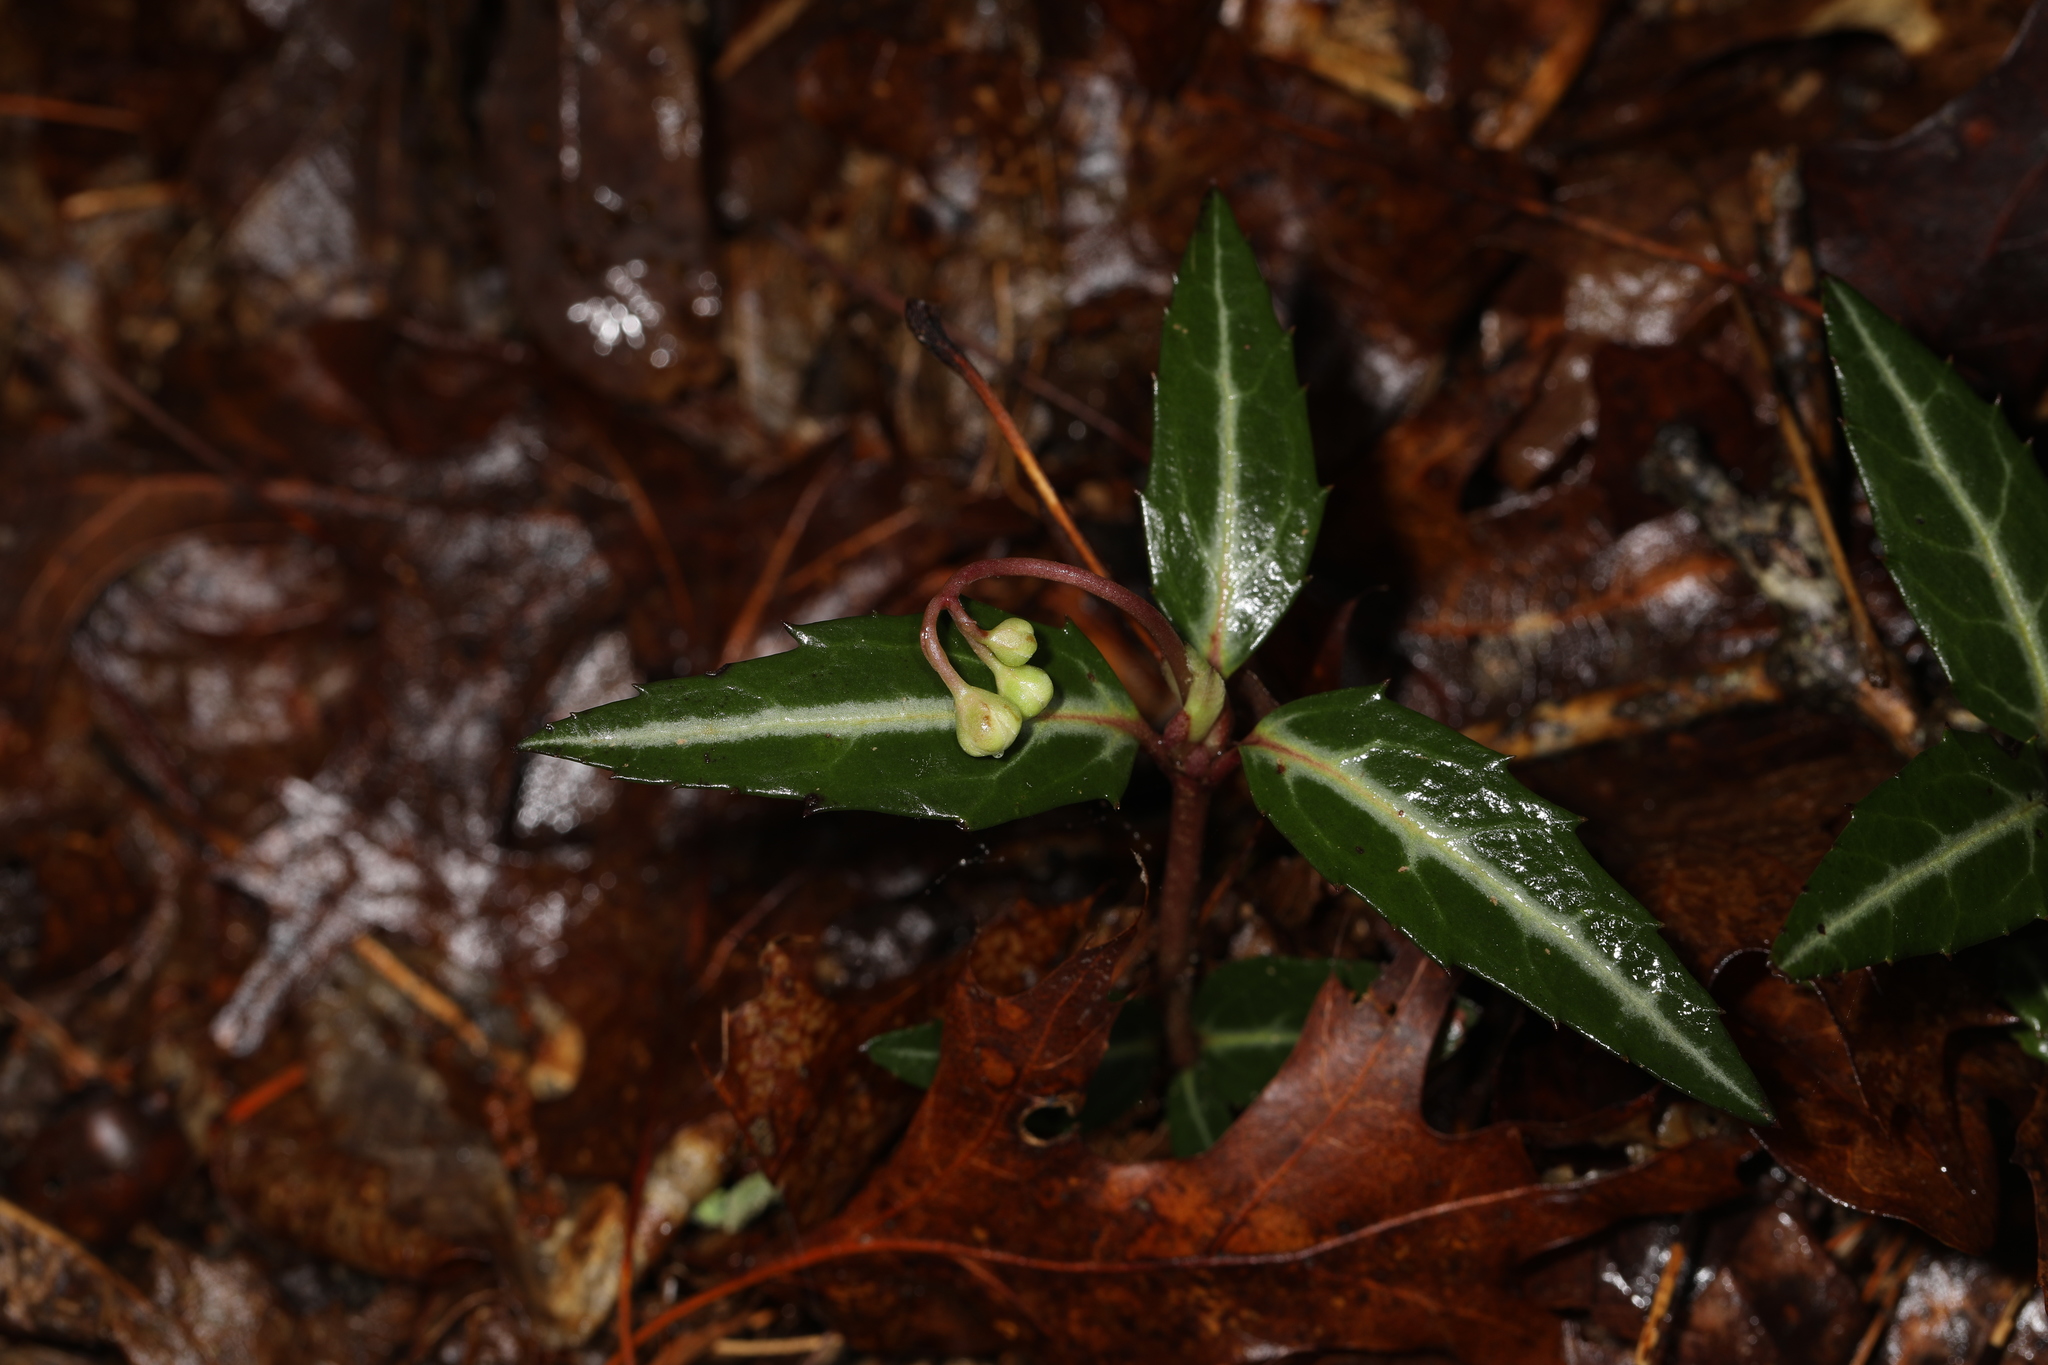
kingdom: Plantae
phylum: Tracheophyta
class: Magnoliopsida
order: Ericales
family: Ericaceae
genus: Chimaphila
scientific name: Chimaphila maculata
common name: Spotted pipsissewa
